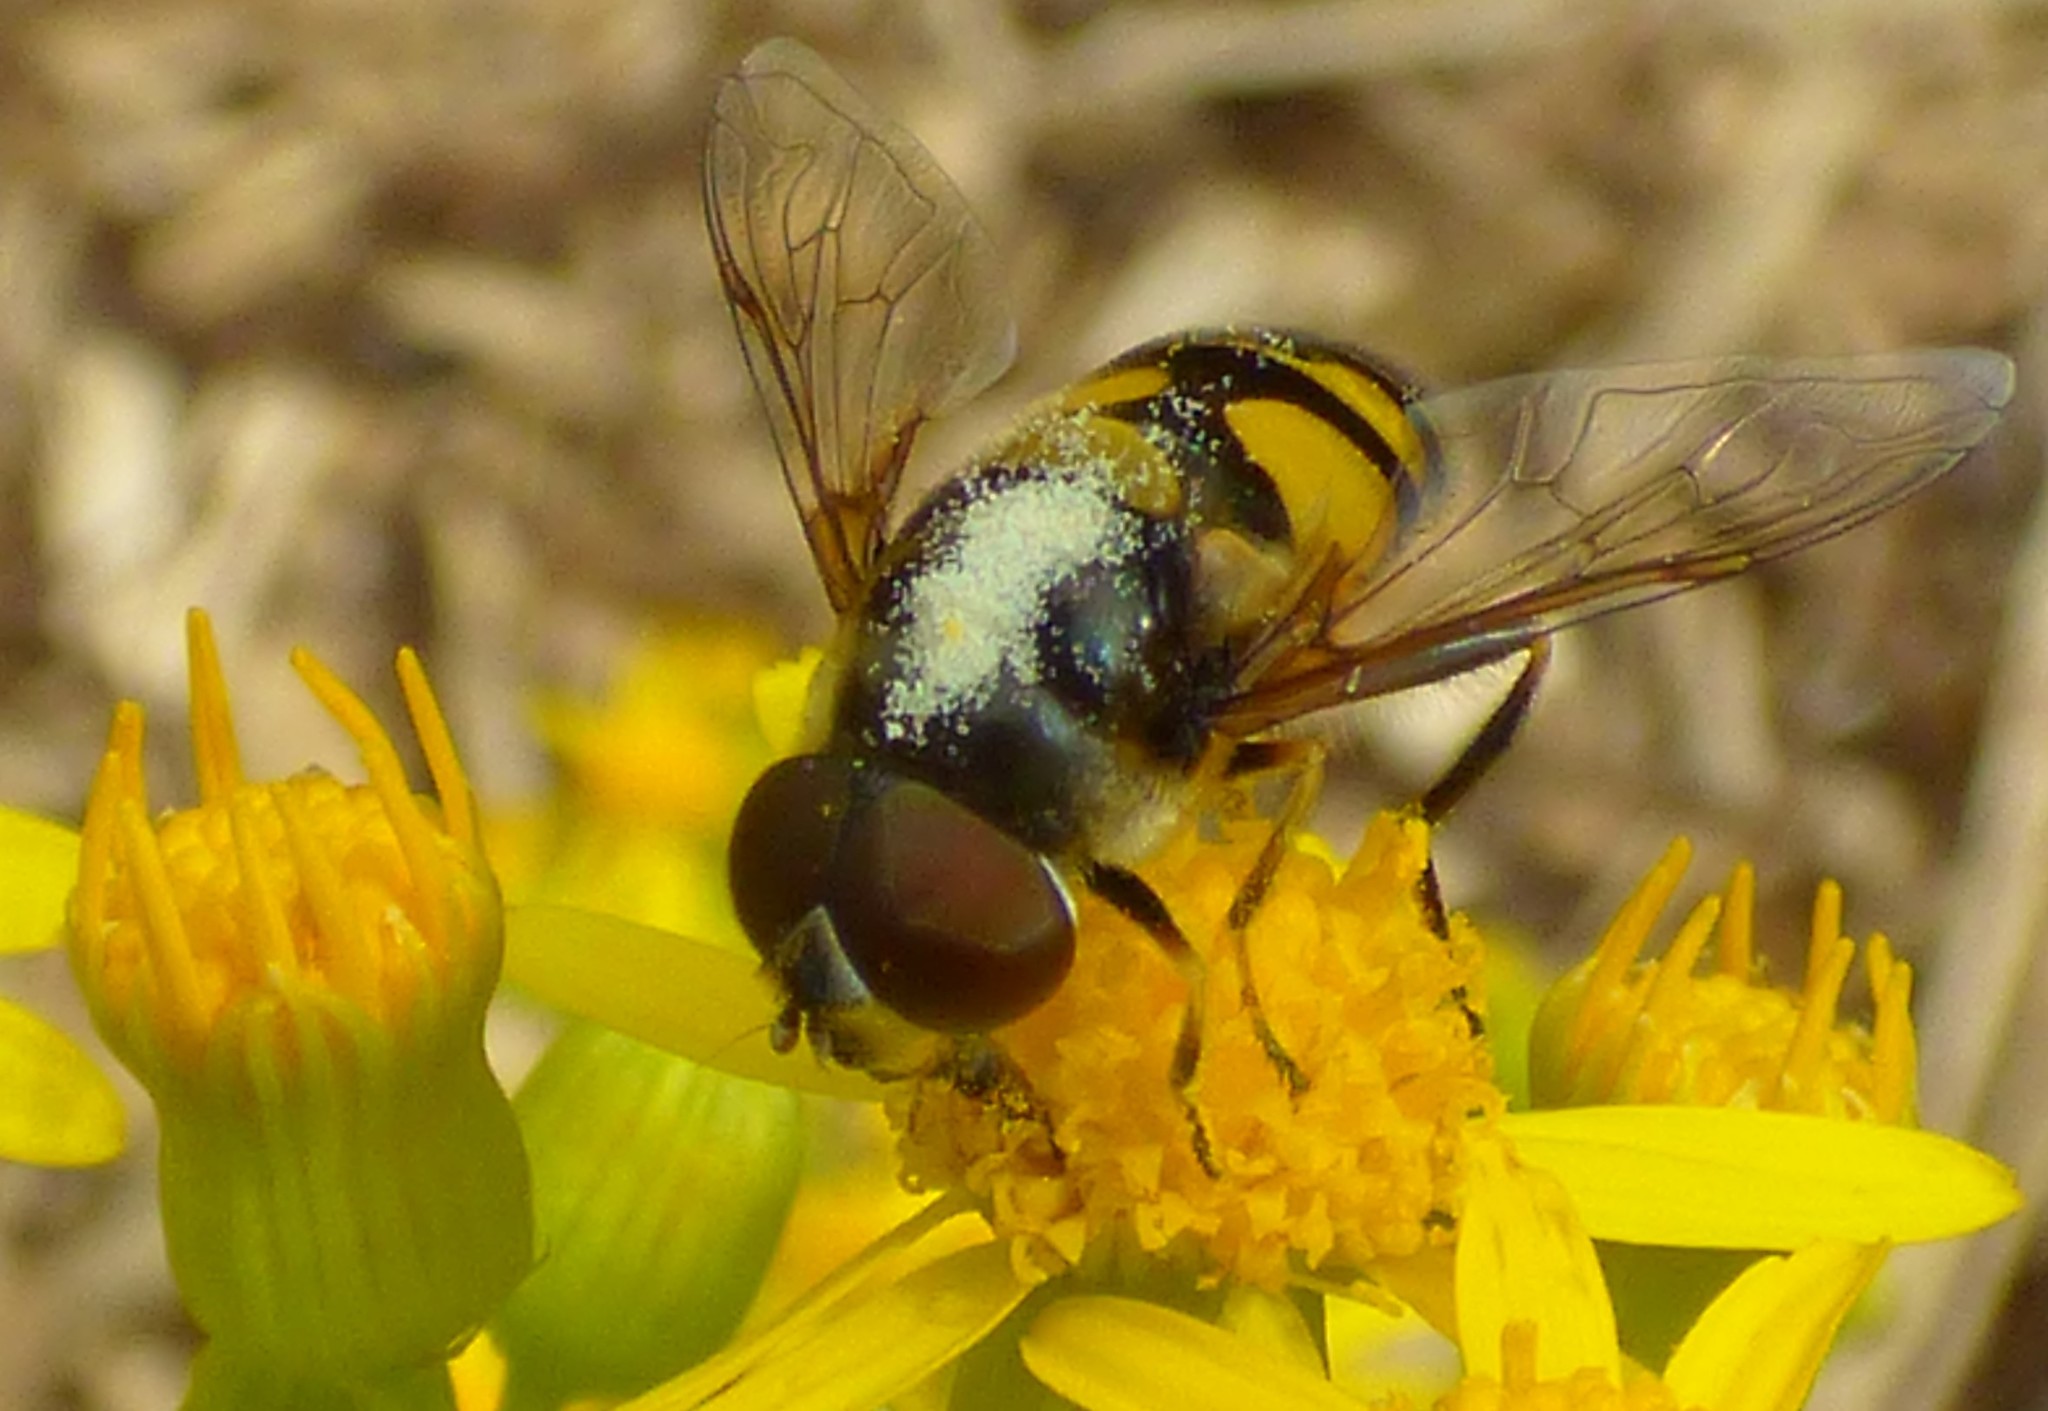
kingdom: Animalia
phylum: Arthropoda
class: Insecta
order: Diptera
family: Syrphidae
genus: Eristalis
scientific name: Eristalis transversa
